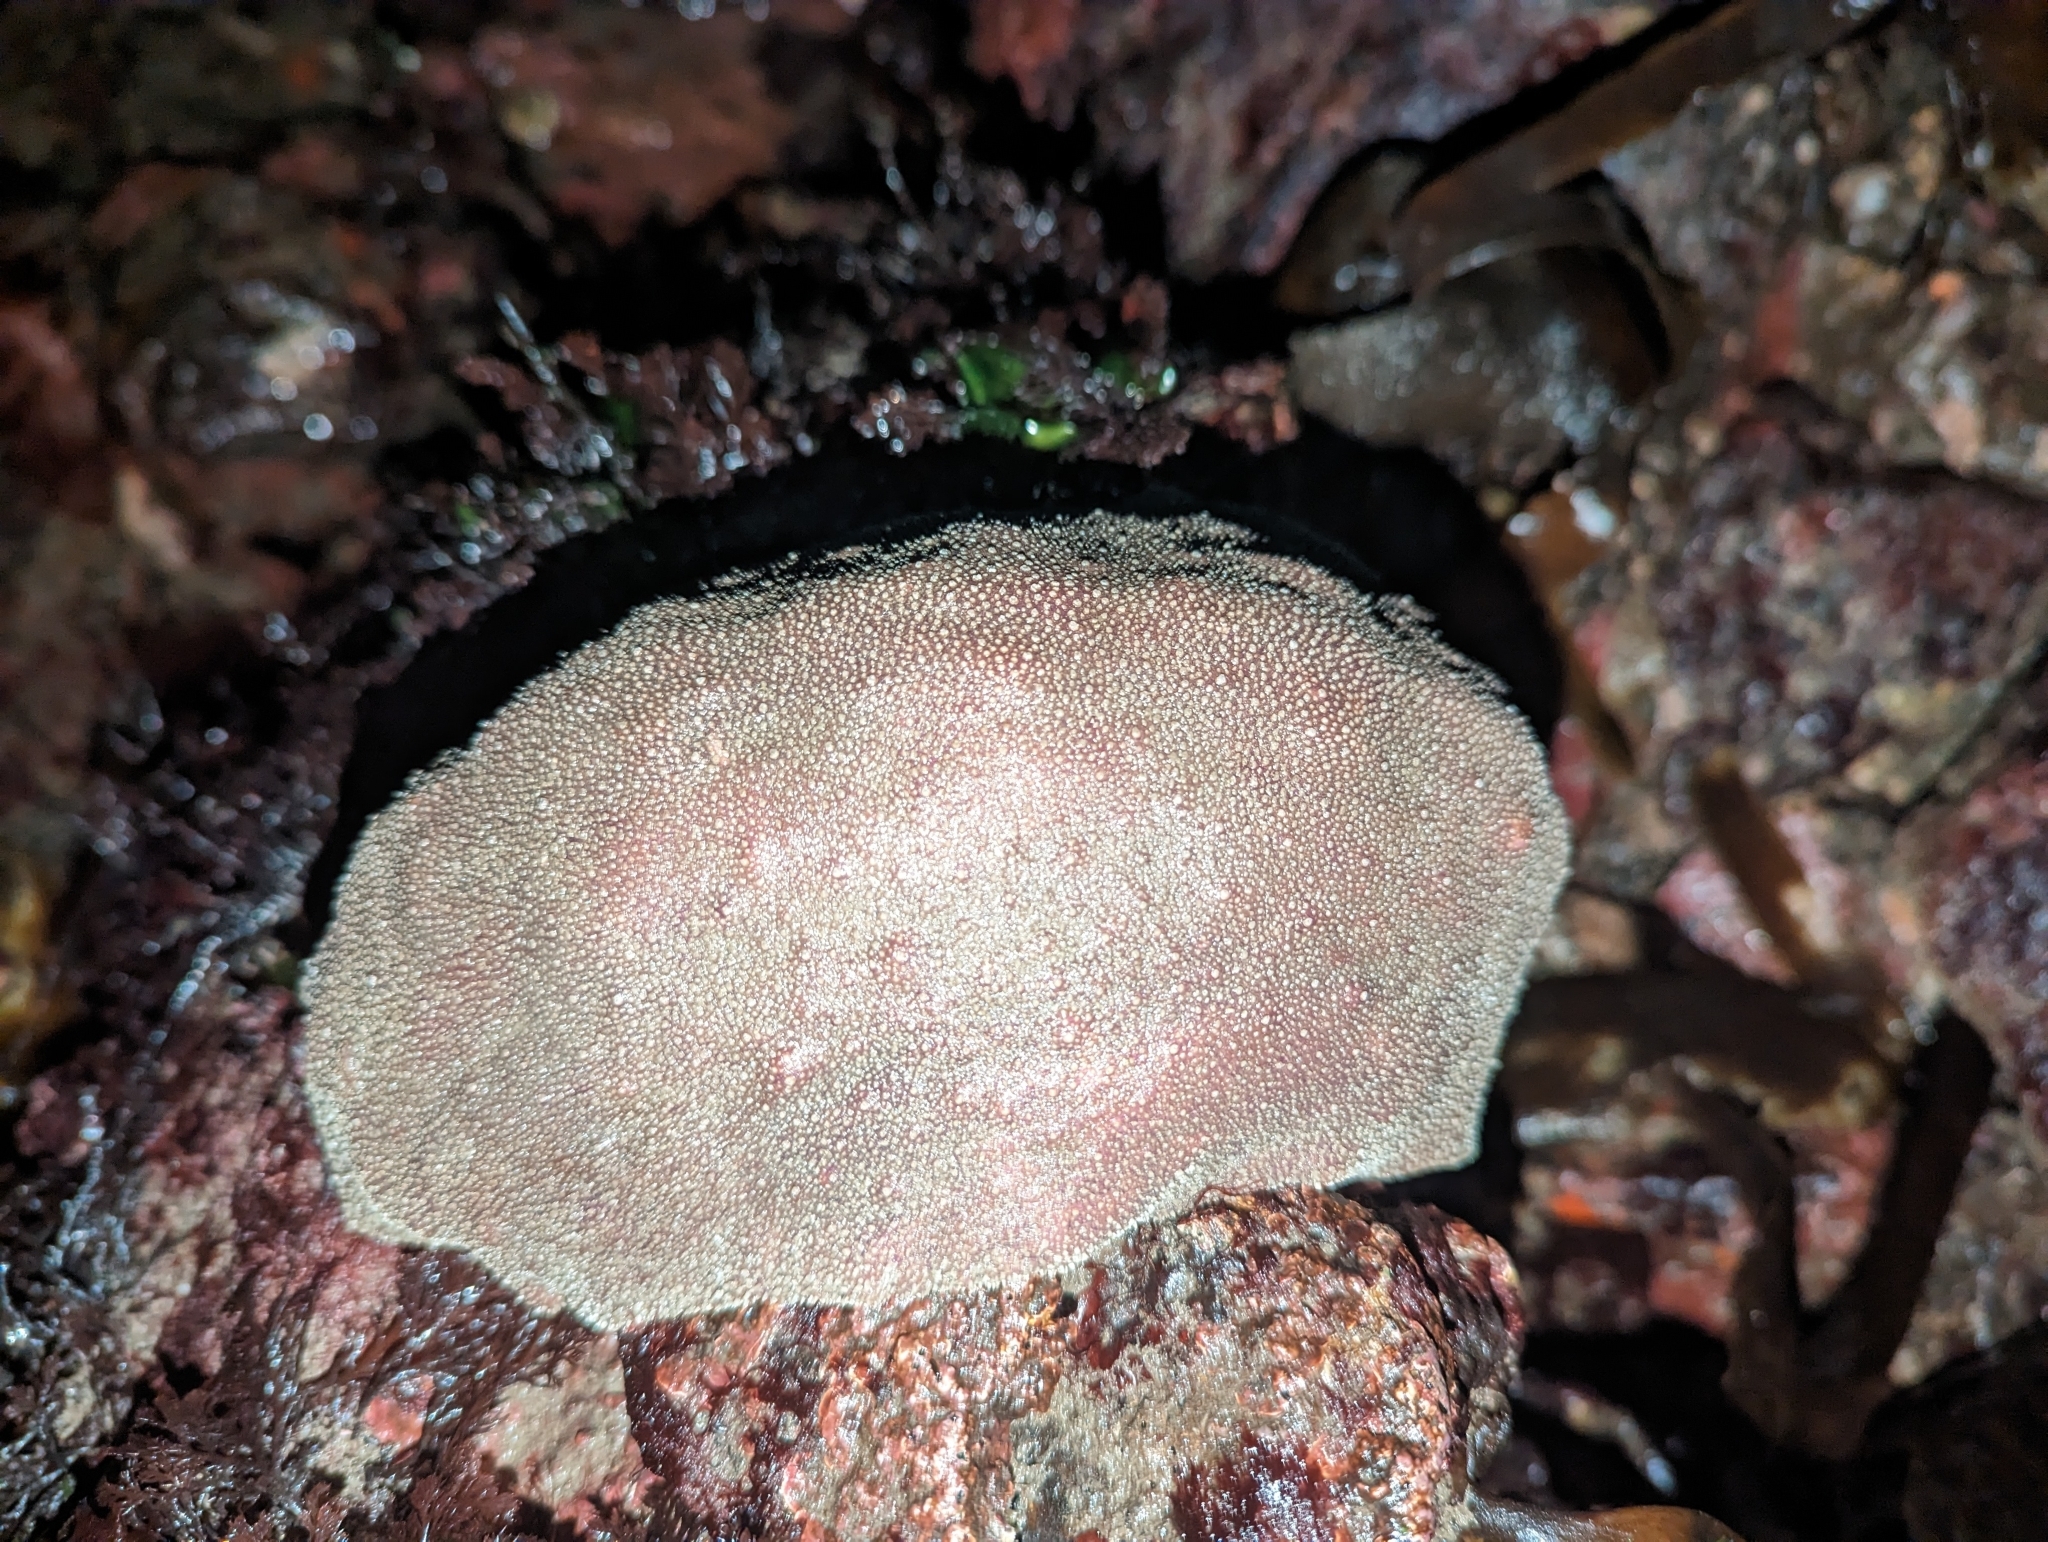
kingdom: Animalia
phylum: Mollusca
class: Polyplacophora
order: Chitonida
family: Acanthochitonidae
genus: Cryptochiton
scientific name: Cryptochiton stelleri
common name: Giant pacific chiton
